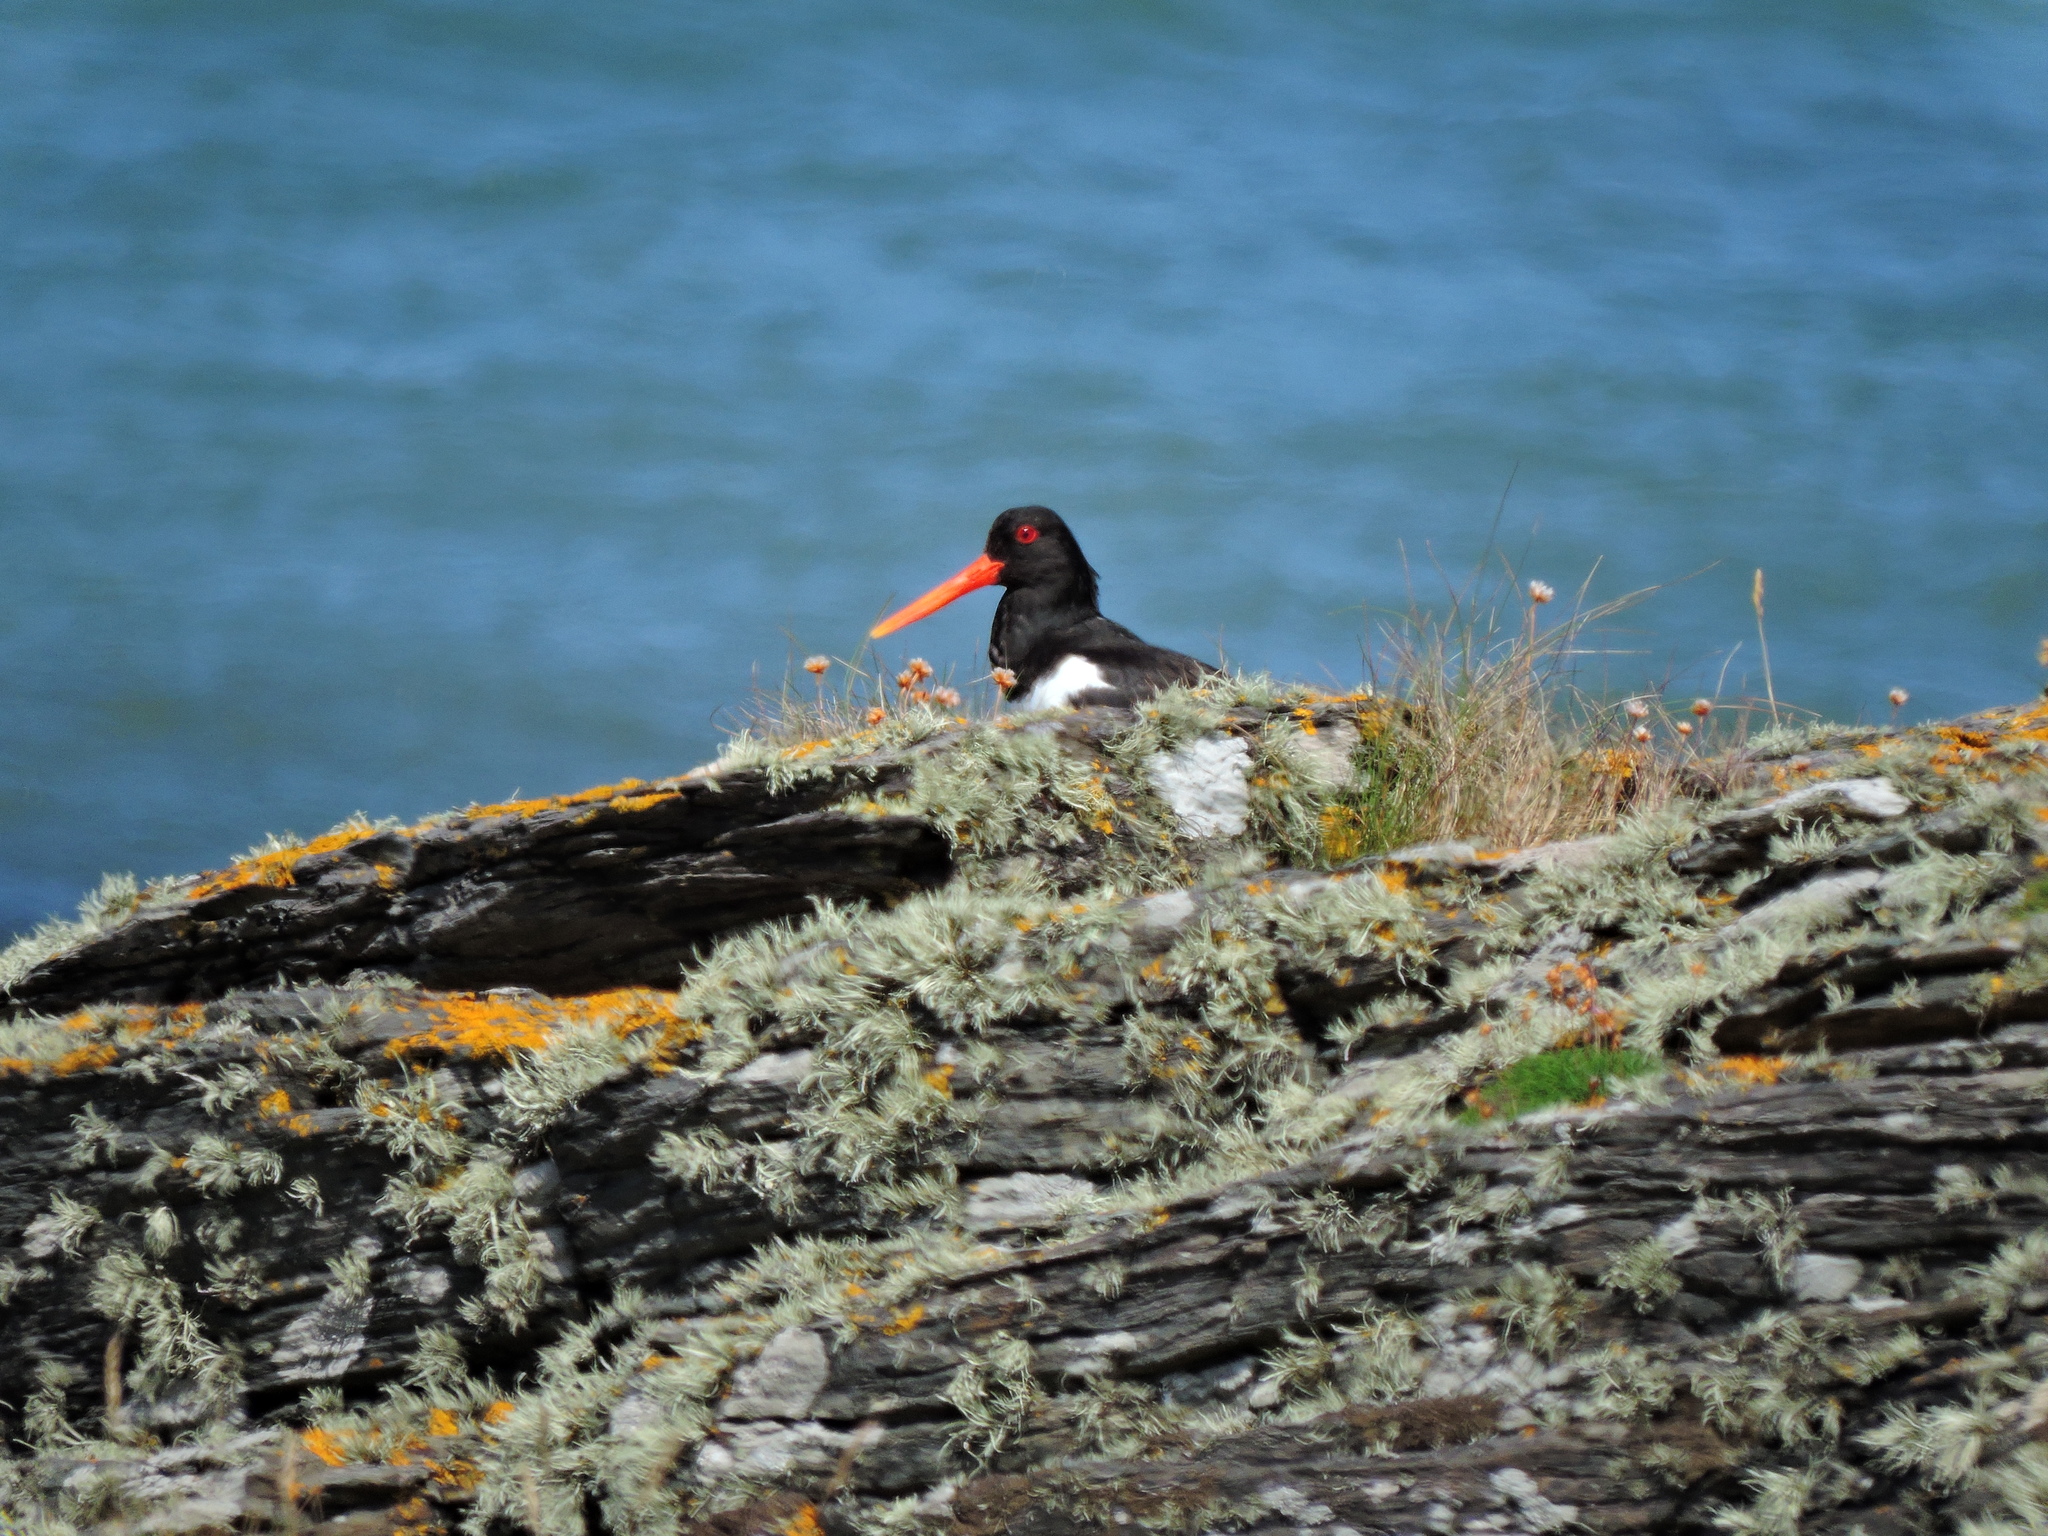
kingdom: Animalia
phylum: Chordata
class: Aves
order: Charadriiformes
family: Haematopodidae
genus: Haematopus
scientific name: Haematopus ostralegus
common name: Eurasian oystercatcher
